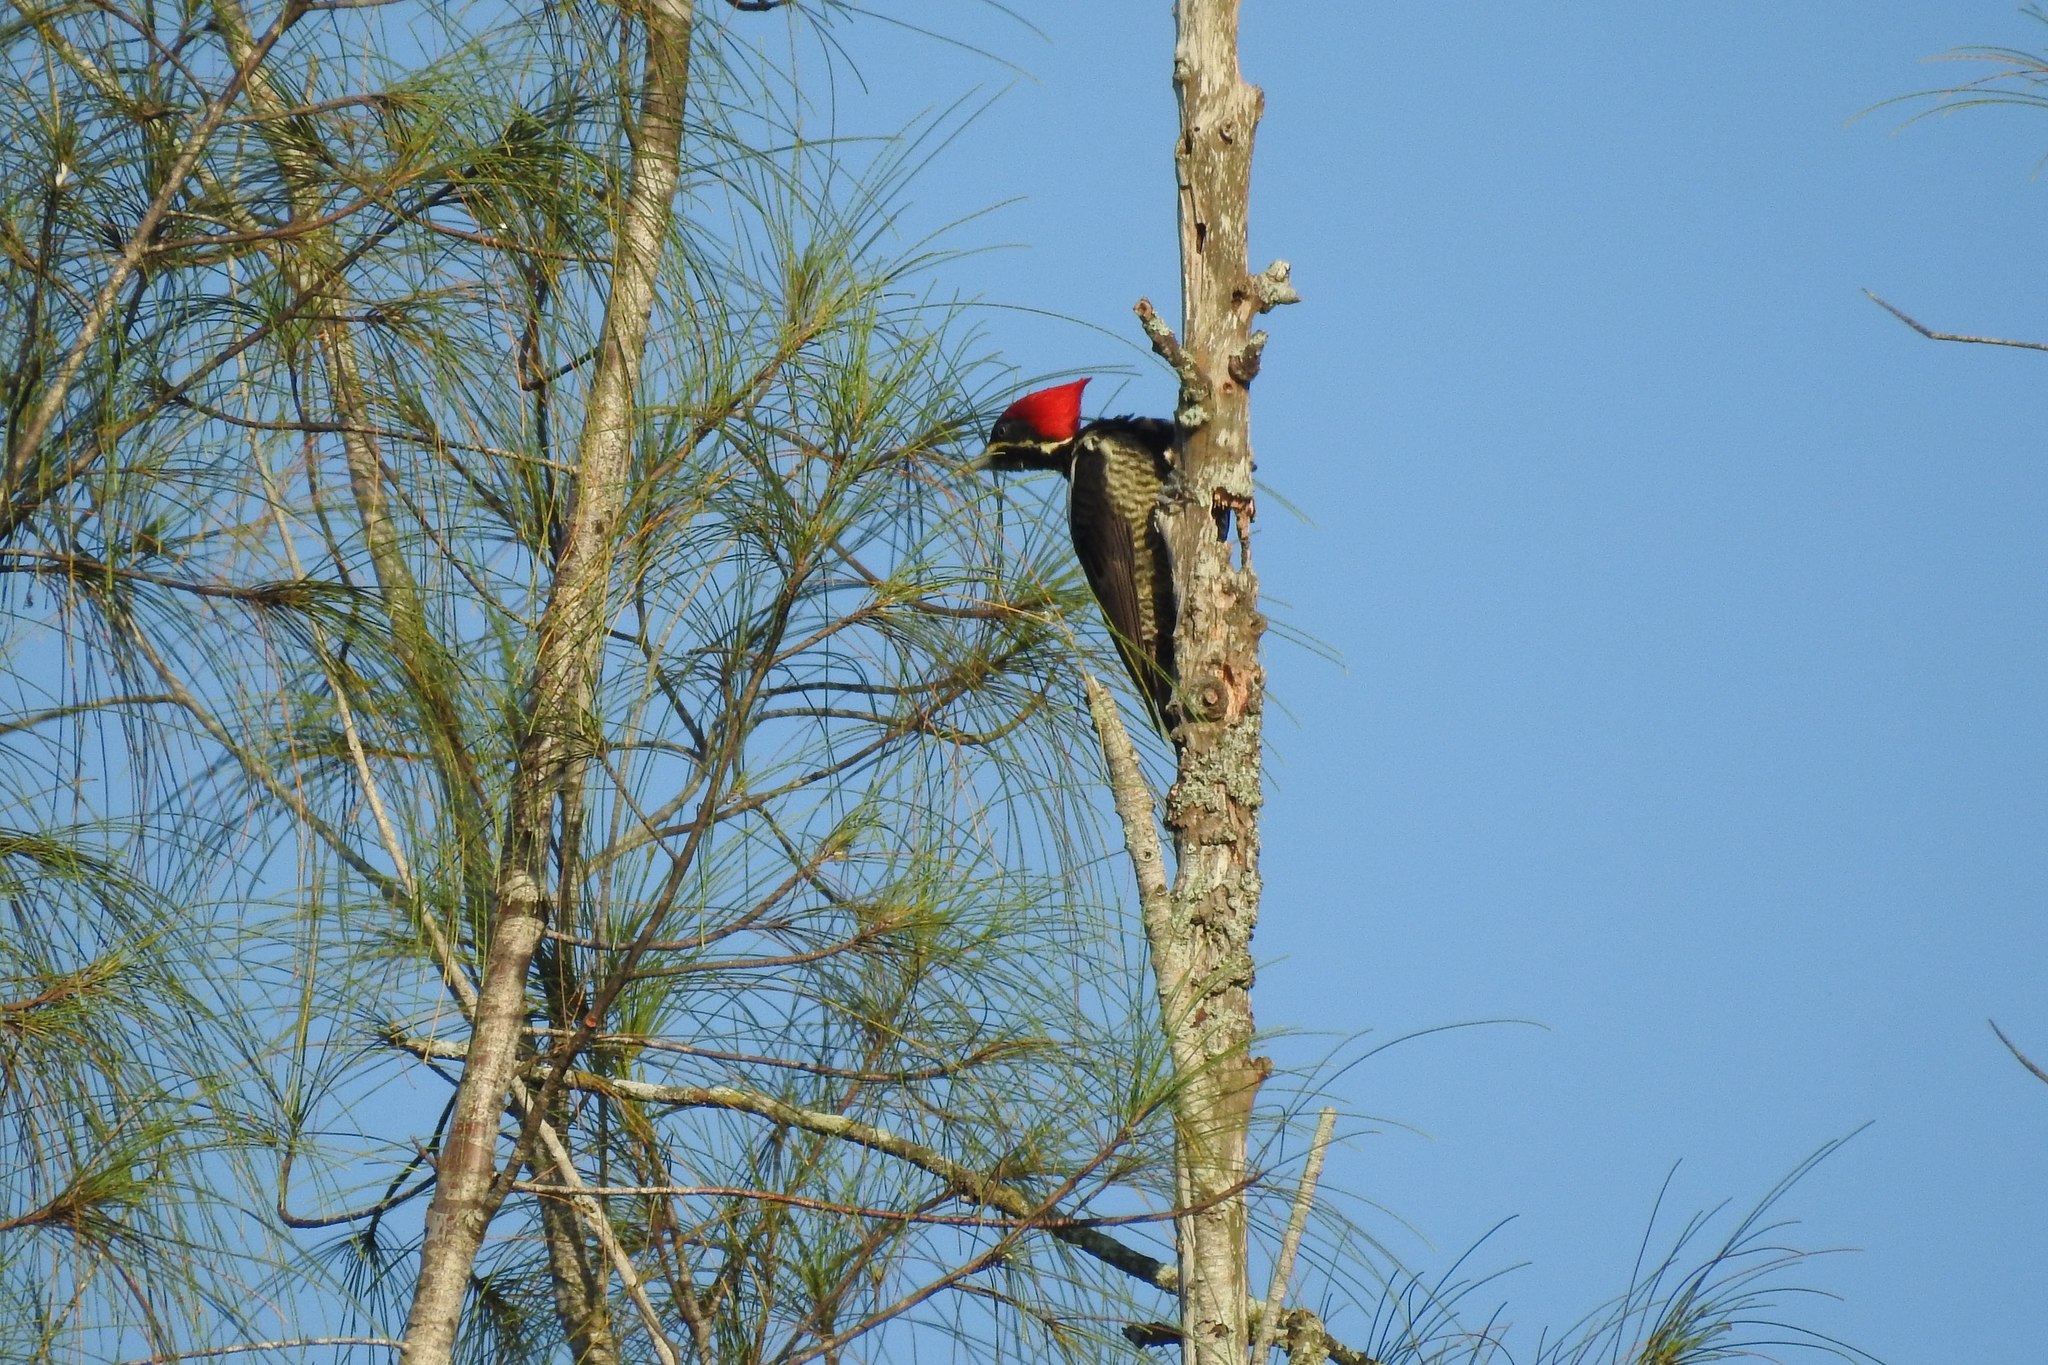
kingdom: Animalia
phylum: Chordata
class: Aves
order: Piciformes
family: Picidae
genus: Dryocopus
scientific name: Dryocopus lineatus
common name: Lineated woodpecker
